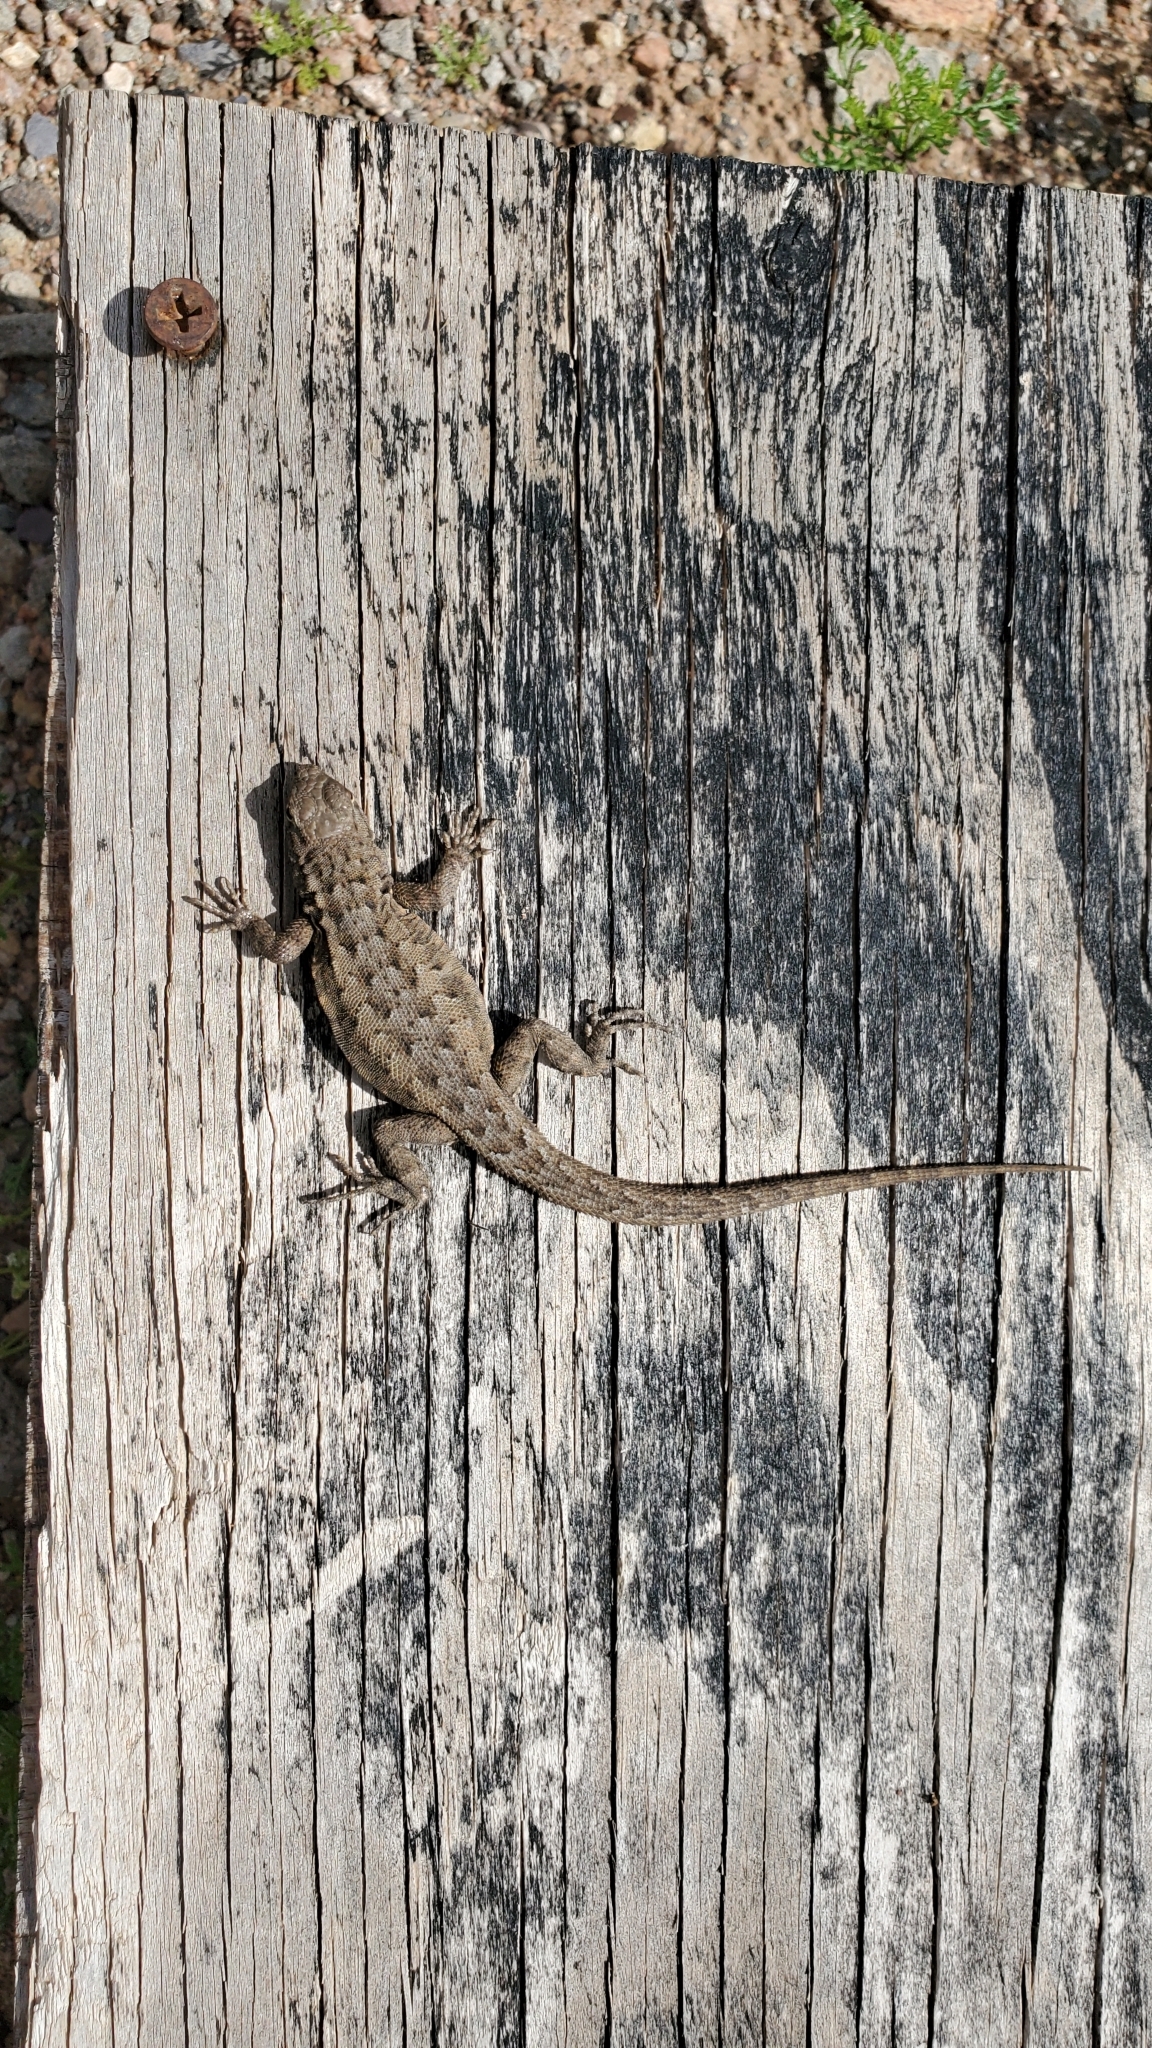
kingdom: Animalia
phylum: Chordata
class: Squamata
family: Phrynosomatidae
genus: Uta
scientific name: Uta stansburiana
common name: Side-blotched lizard
